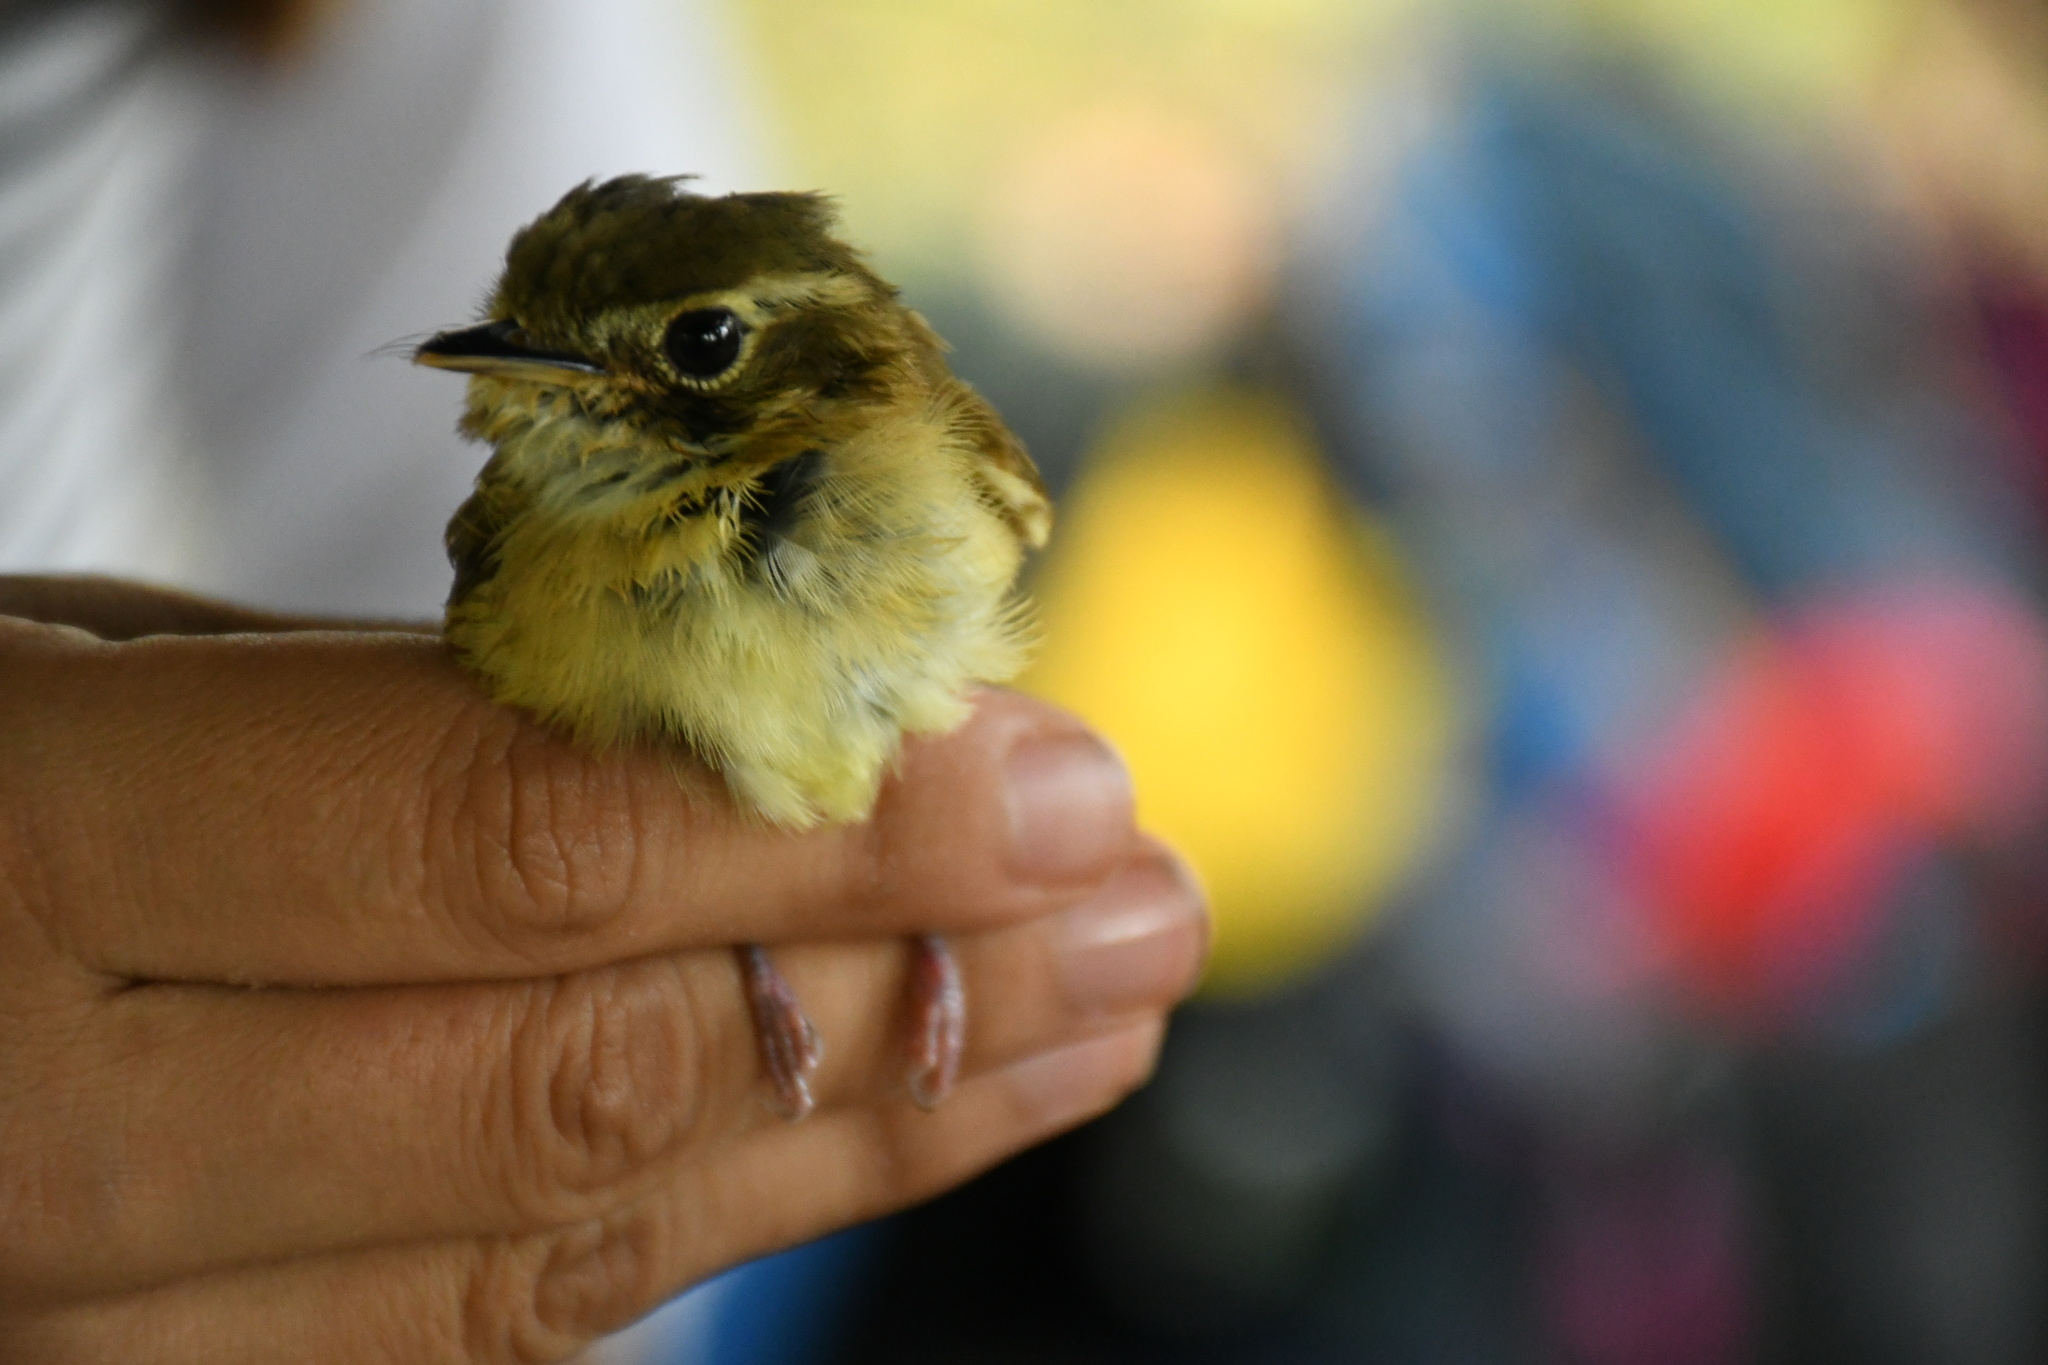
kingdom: Animalia
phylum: Chordata
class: Aves
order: Passeriformes
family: Tyrannidae
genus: Platyrinchus
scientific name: Platyrinchus cancrominus
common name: Stub-tailed spadebill
